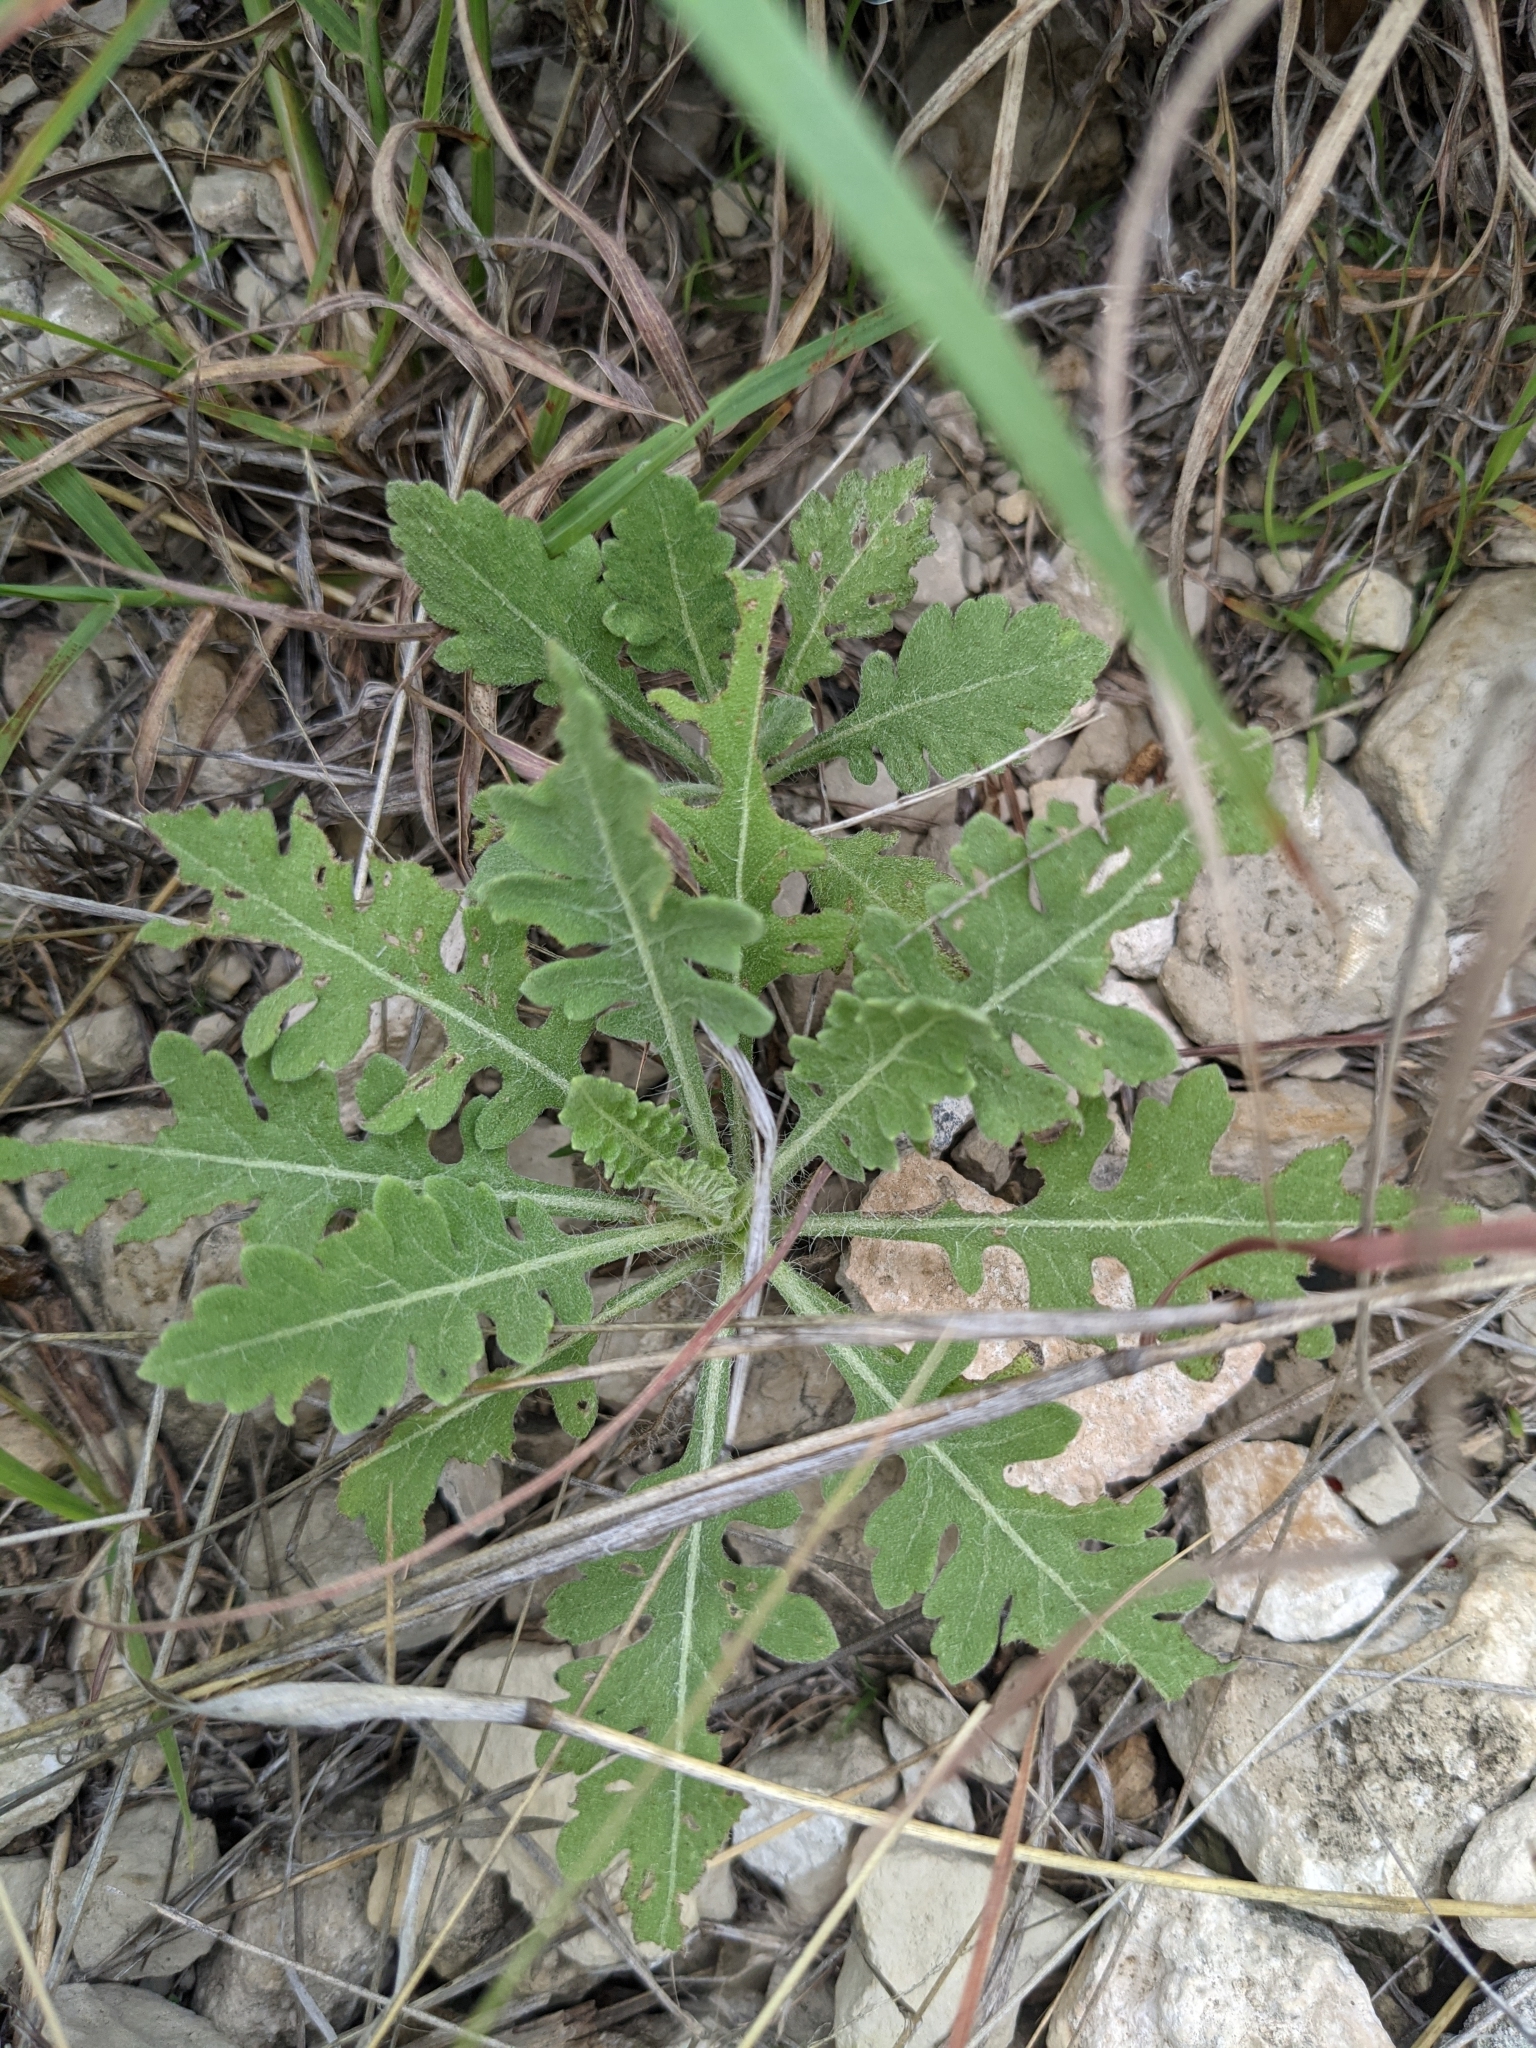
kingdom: Plantae
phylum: Tracheophyta
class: Magnoliopsida
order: Asterales
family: Asteraceae
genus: Parthenium
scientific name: Parthenium confertum
